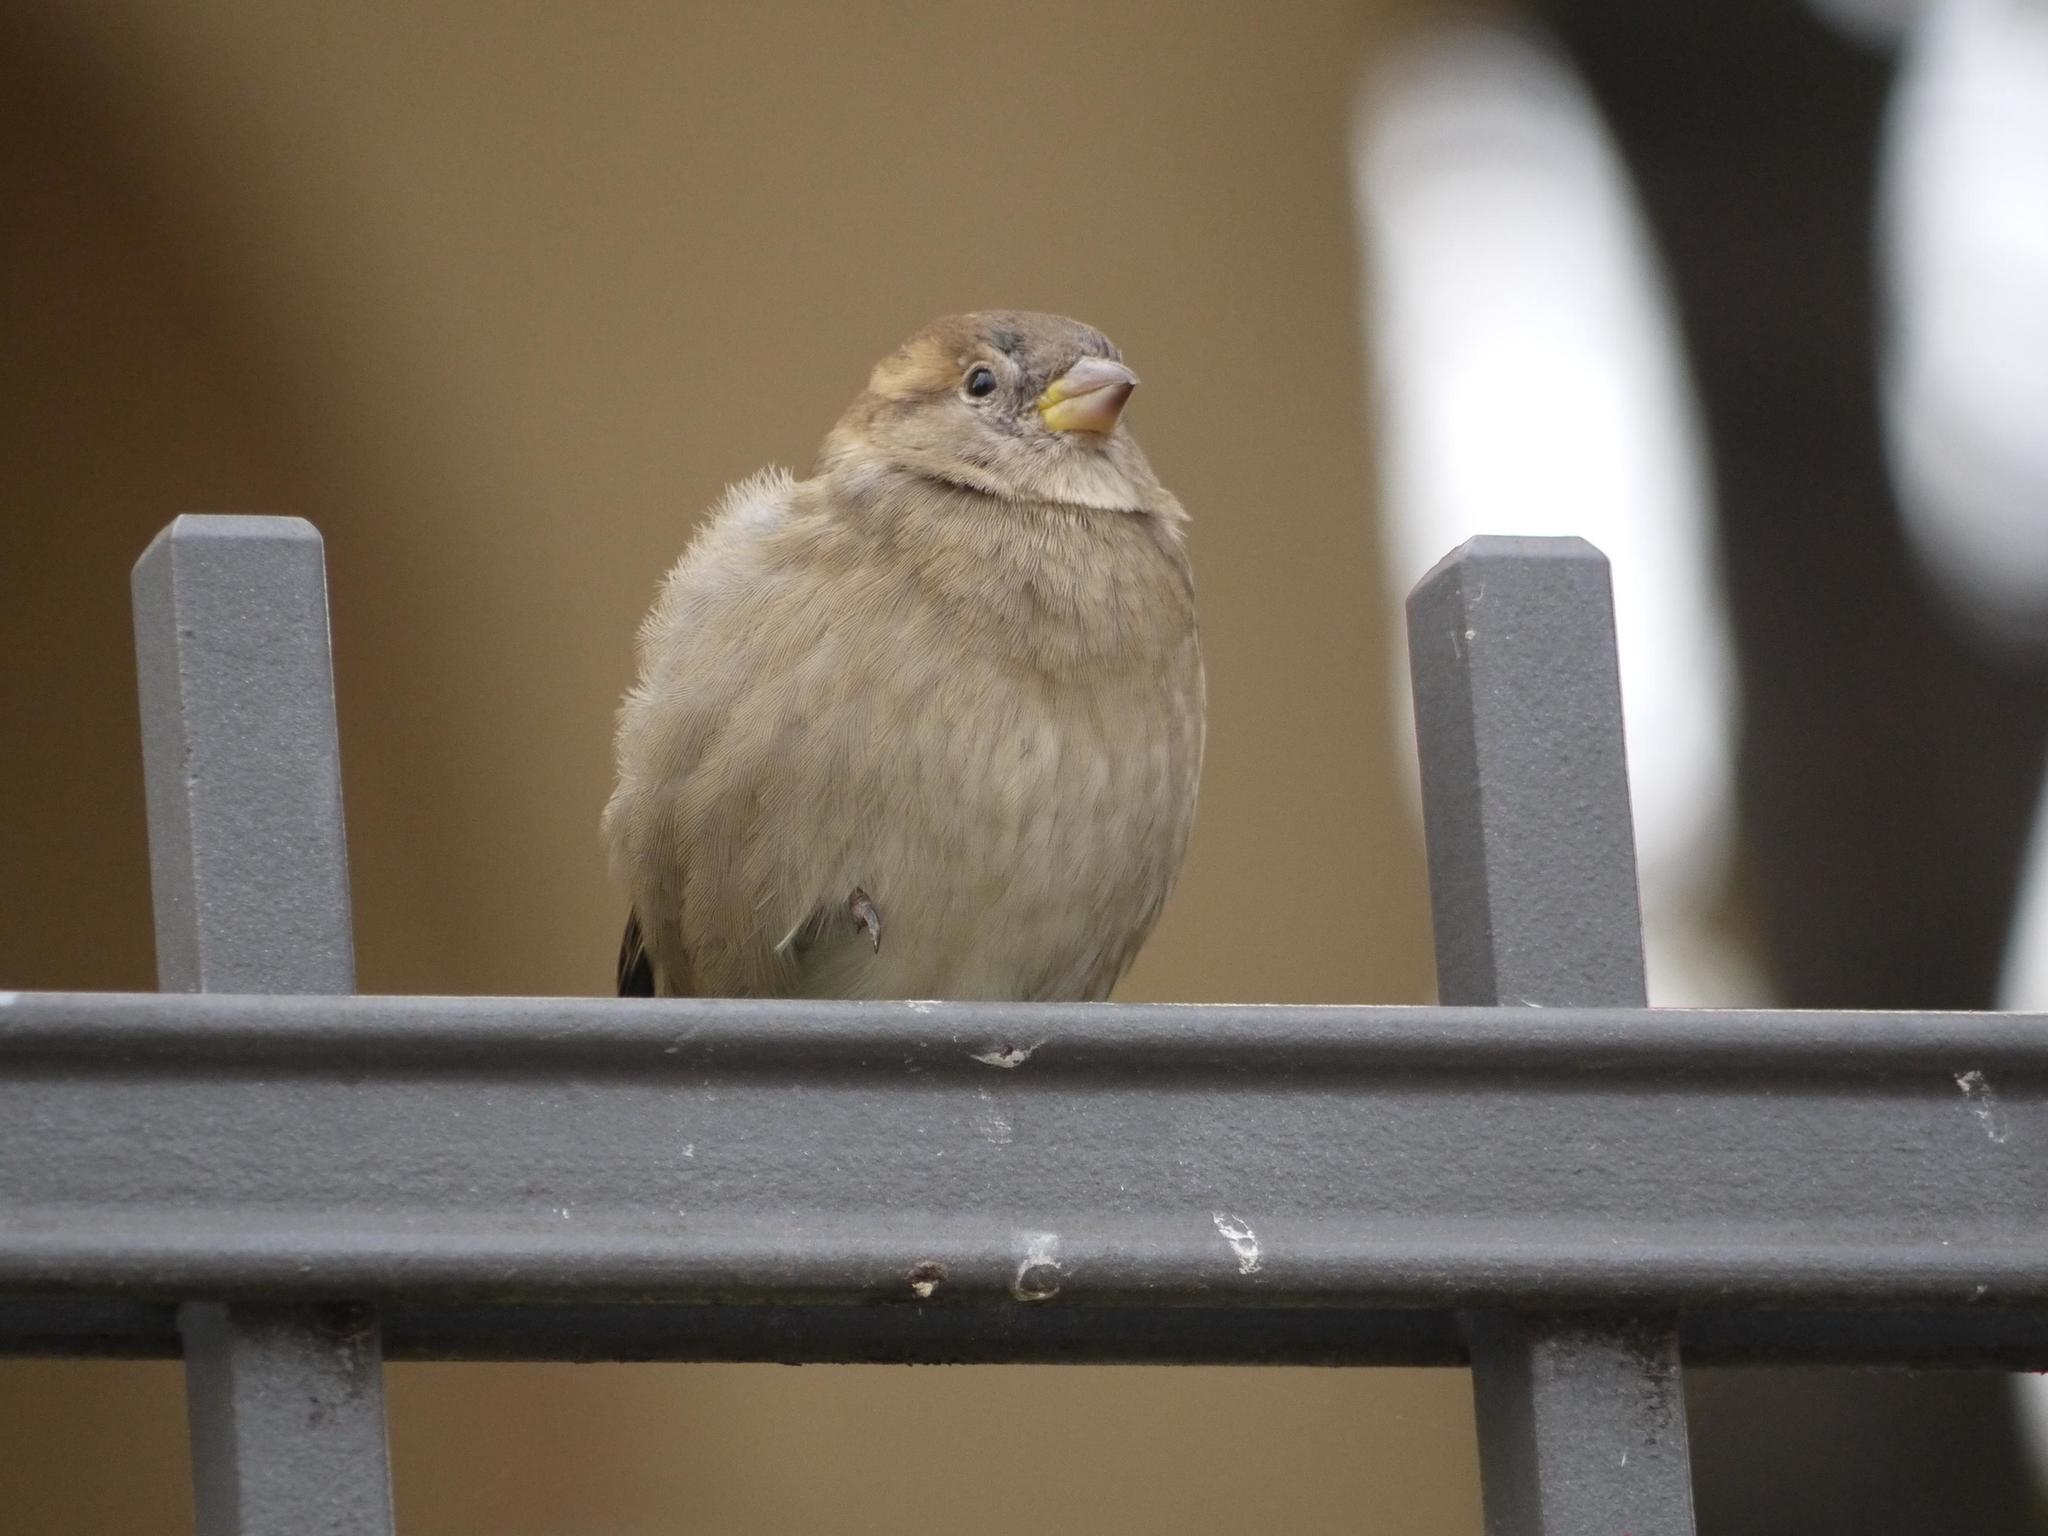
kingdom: Animalia
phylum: Chordata
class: Aves
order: Passeriformes
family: Passeridae
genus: Passer
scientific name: Passer domesticus
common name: House sparrow
